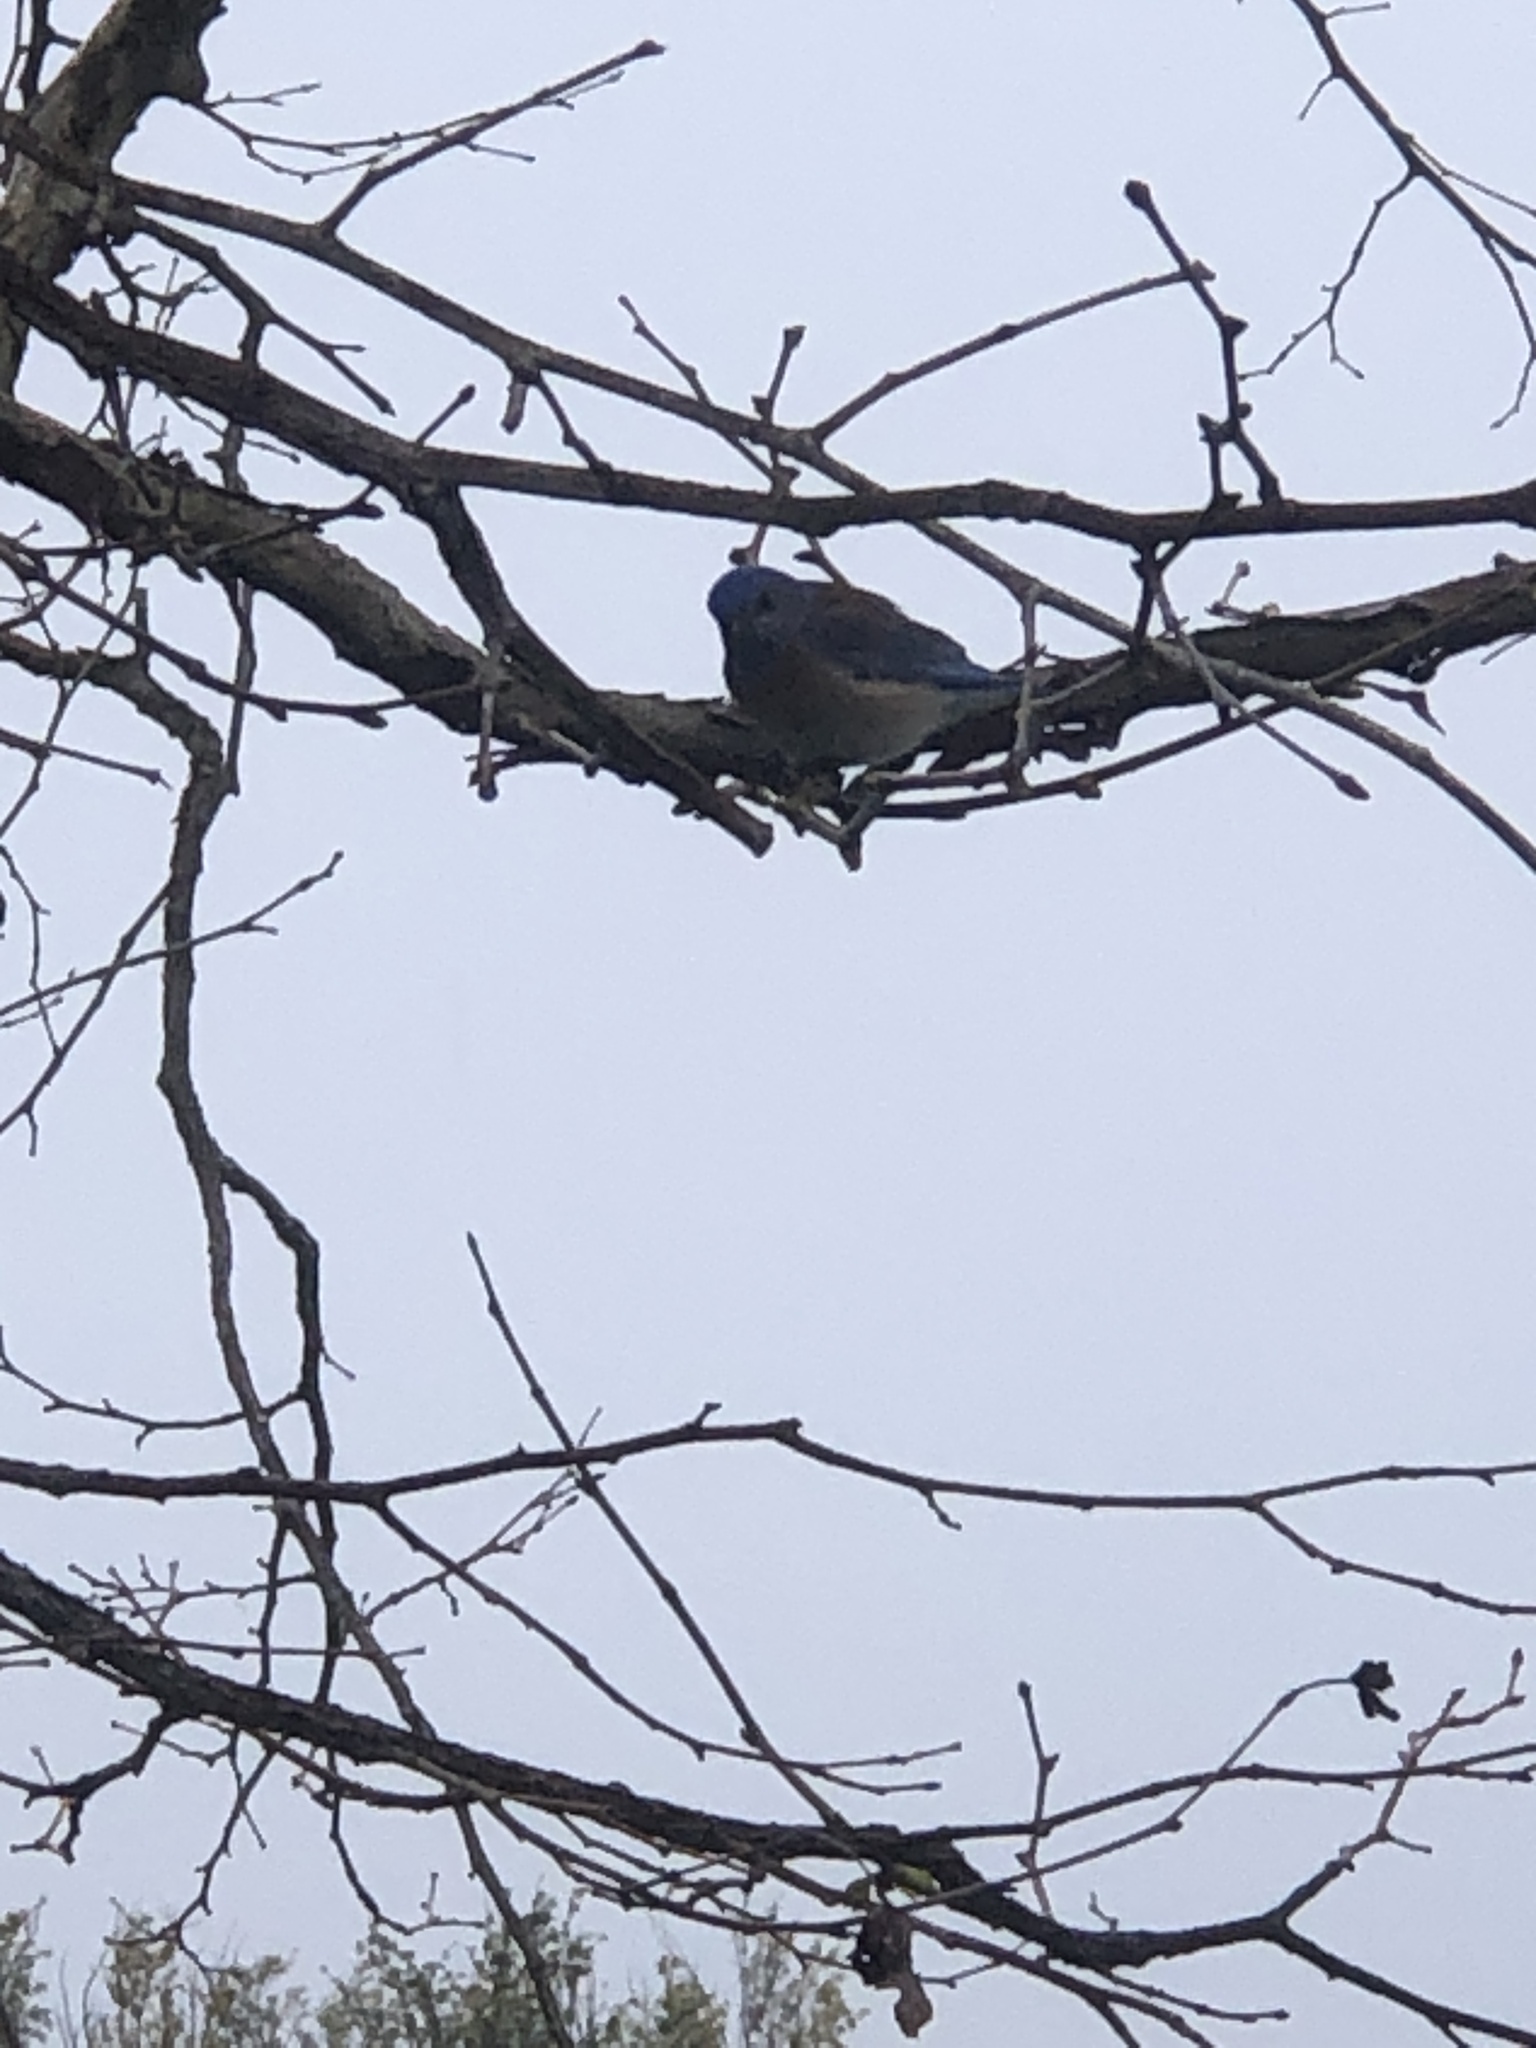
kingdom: Animalia
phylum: Chordata
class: Aves
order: Passeriformes
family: Turdidae
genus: Sialia
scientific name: Sialia mexicana
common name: Western bluebird
